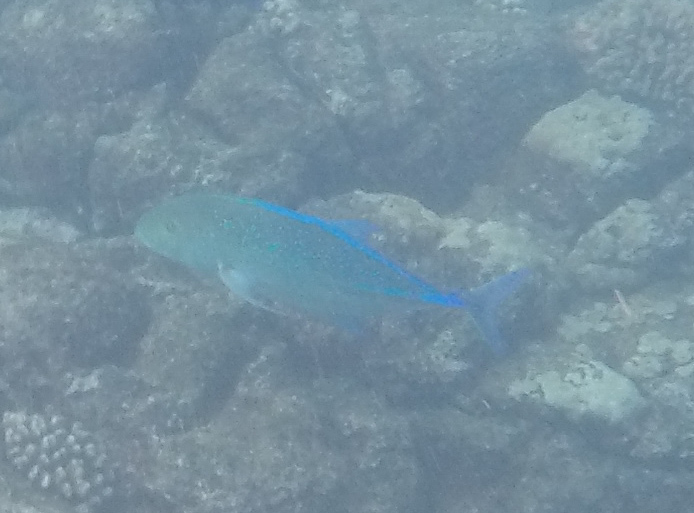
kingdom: Animalia
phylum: Chordata
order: Perciformes
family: Carangidae
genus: Caranx
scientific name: Caranx melampygus
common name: Bluefin trevally
